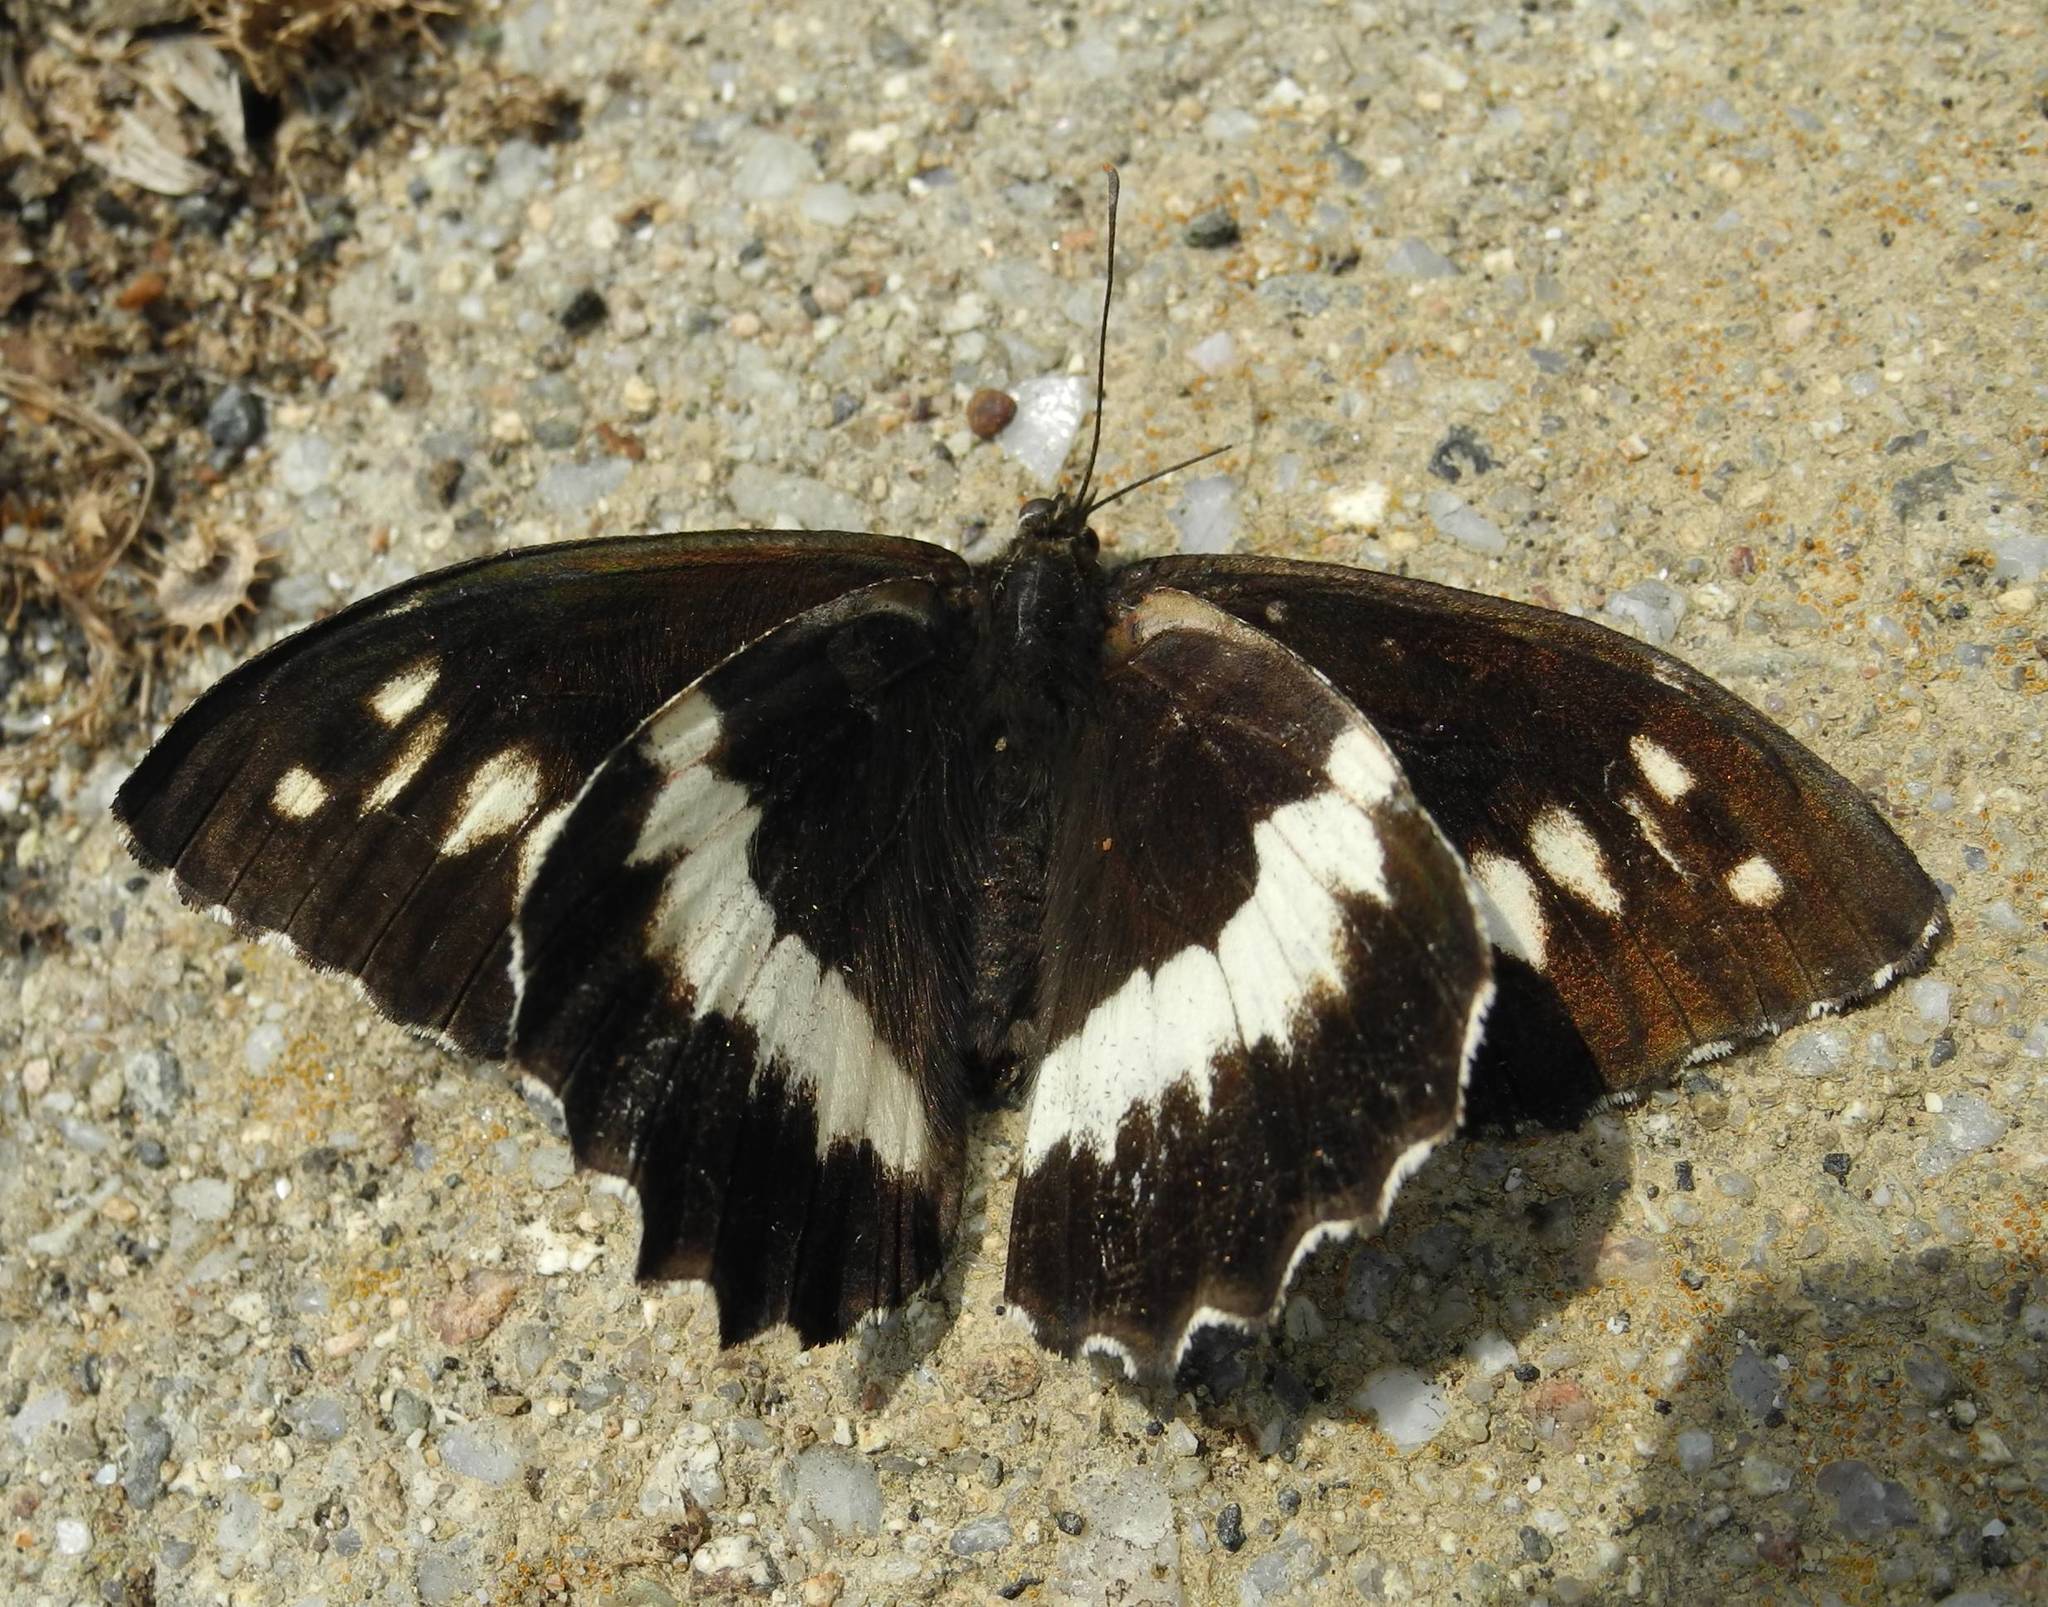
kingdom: Animalia
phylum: Arthropoda
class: Insecta
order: Lepidoptera
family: Lycaenidae
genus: Loweia
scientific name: Loweia tityrus
